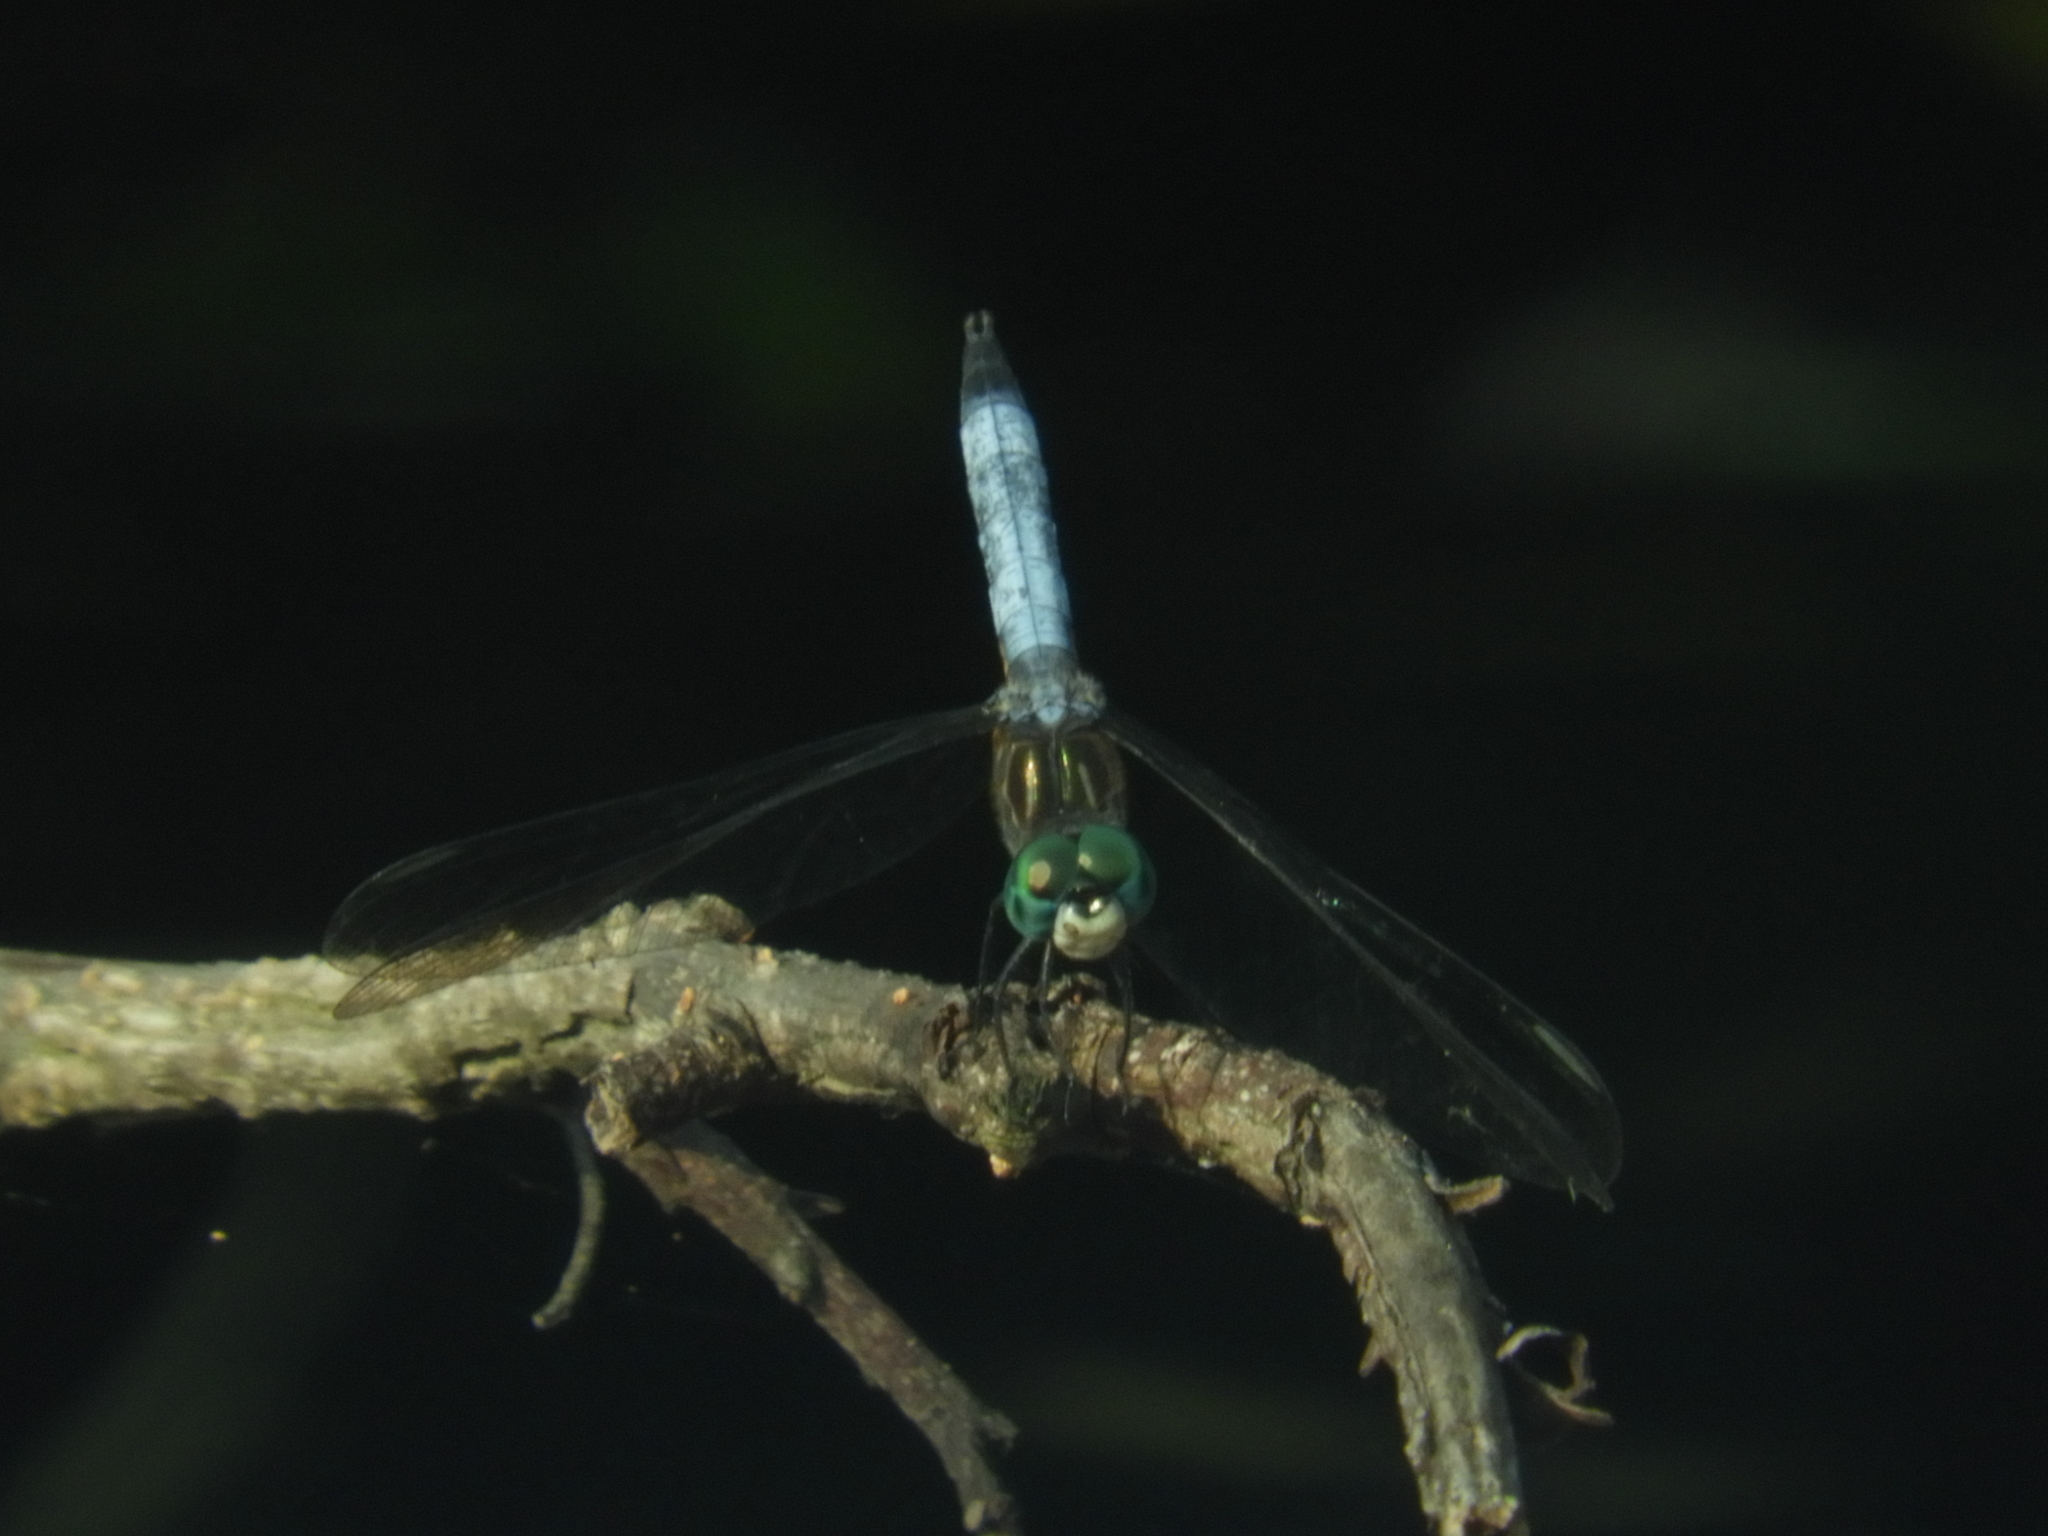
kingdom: Animalia
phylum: Arthropoda
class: Insecta
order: Odonata
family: Libellulidae
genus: Pachydiplax
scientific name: Pachydiplax longipennis
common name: Blue dasher
